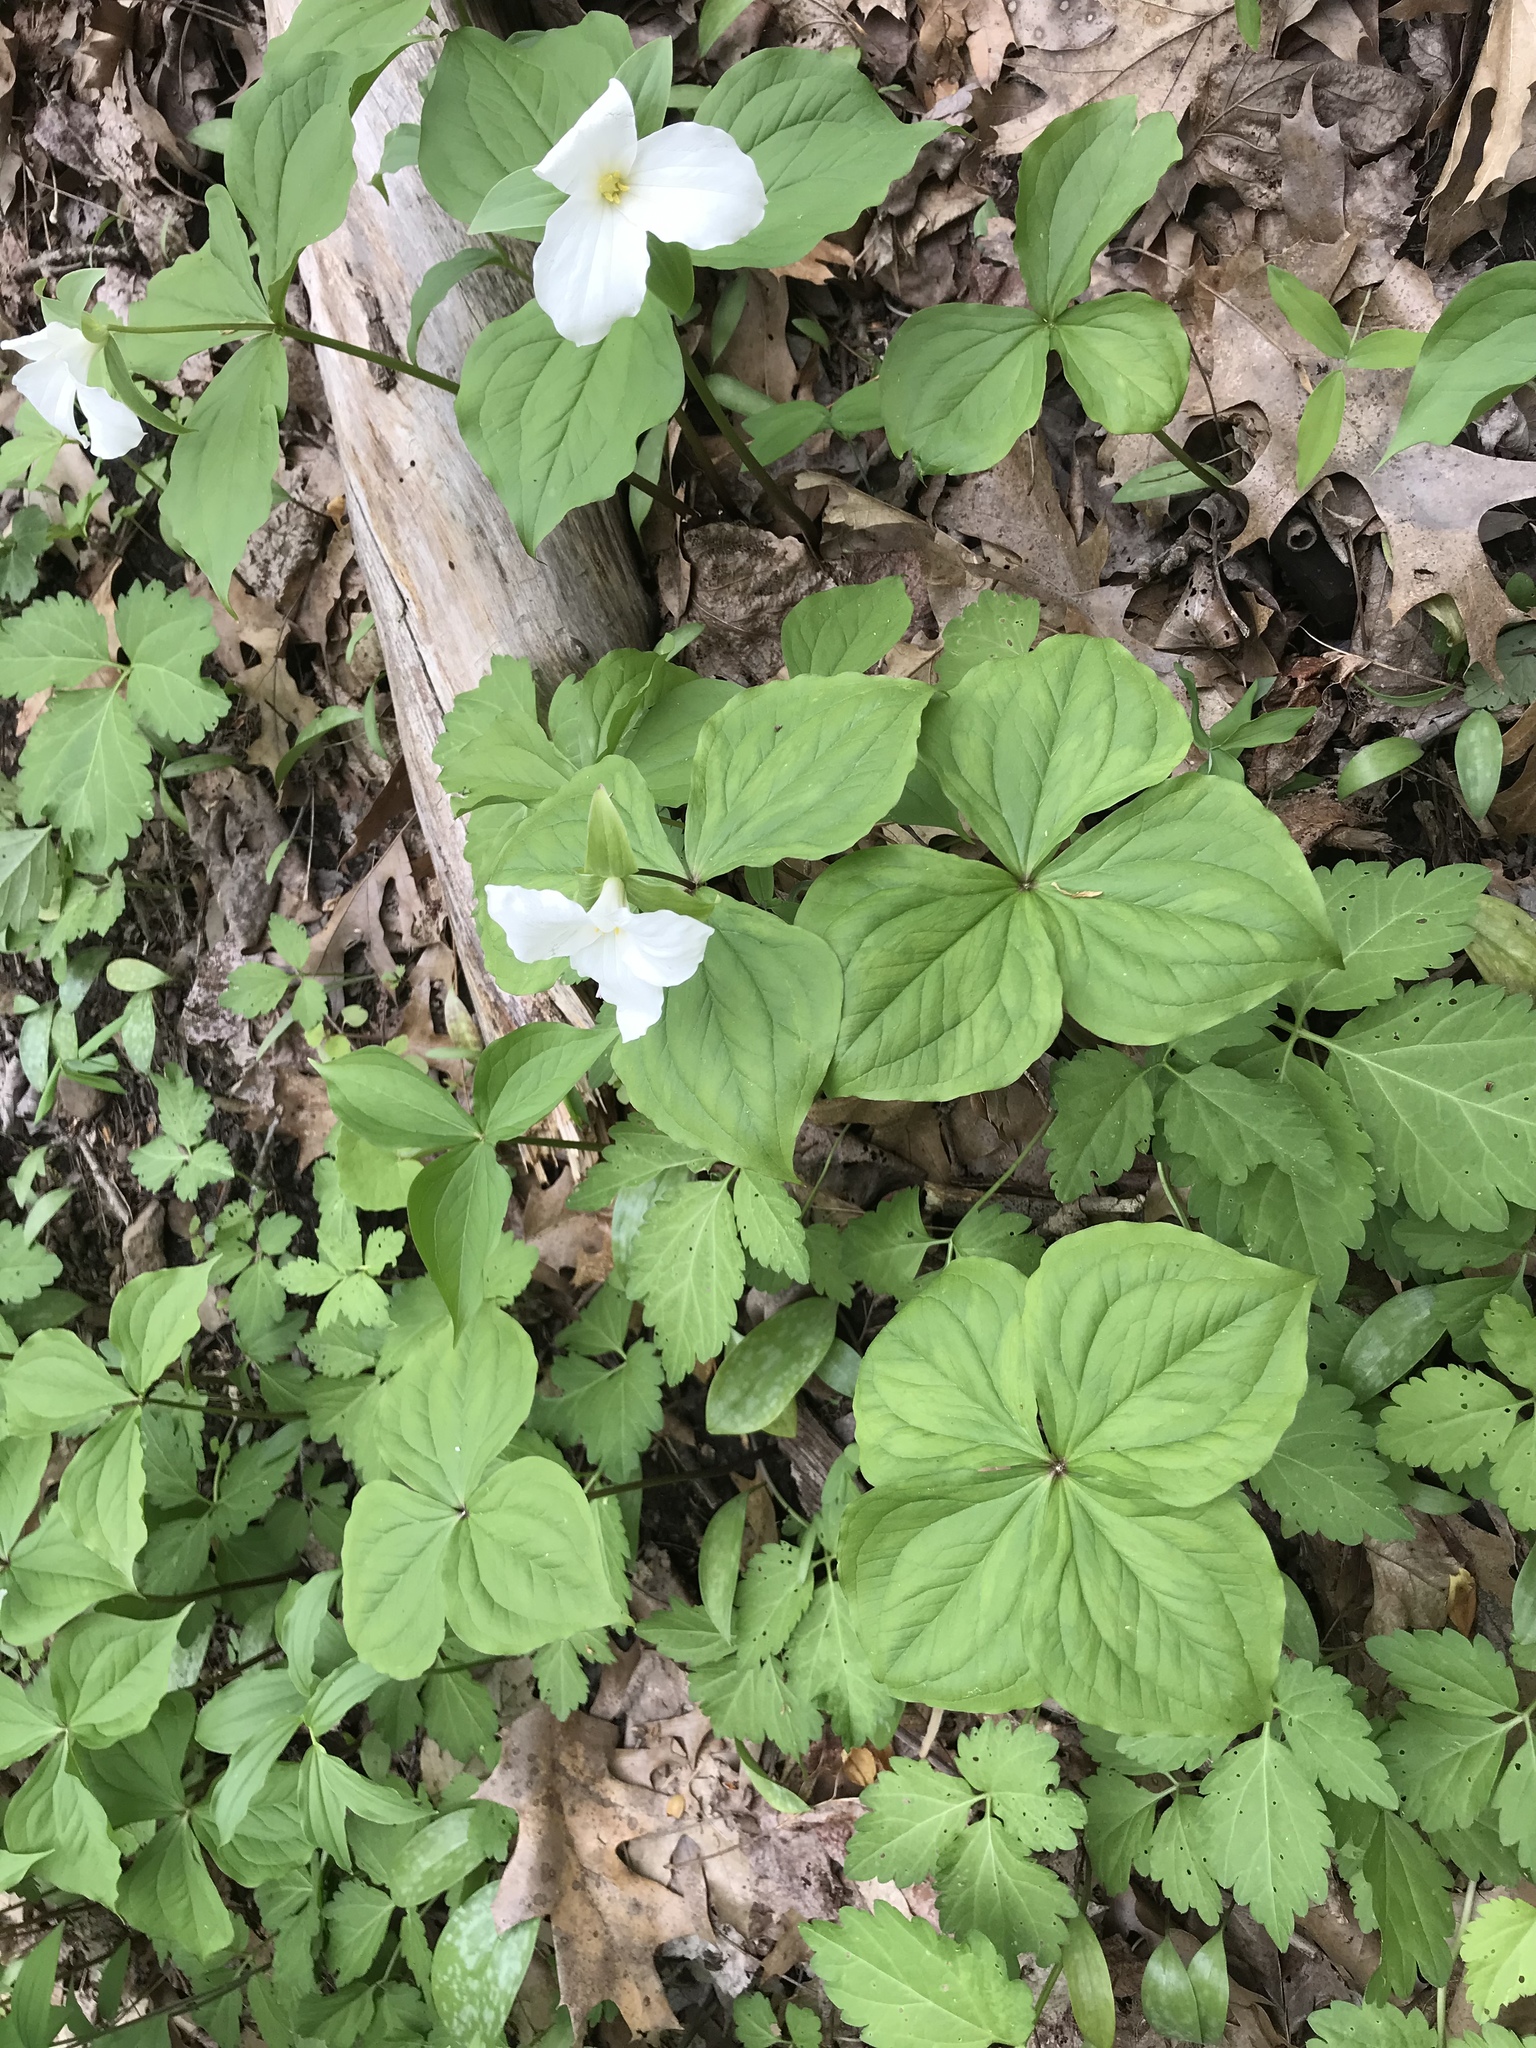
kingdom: Plantae
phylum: Tracheophyta
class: Liliopsida
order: Liliales
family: Melanthiaceae
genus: Trillium
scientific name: Trillium grandiflorum
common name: Great white trillium
